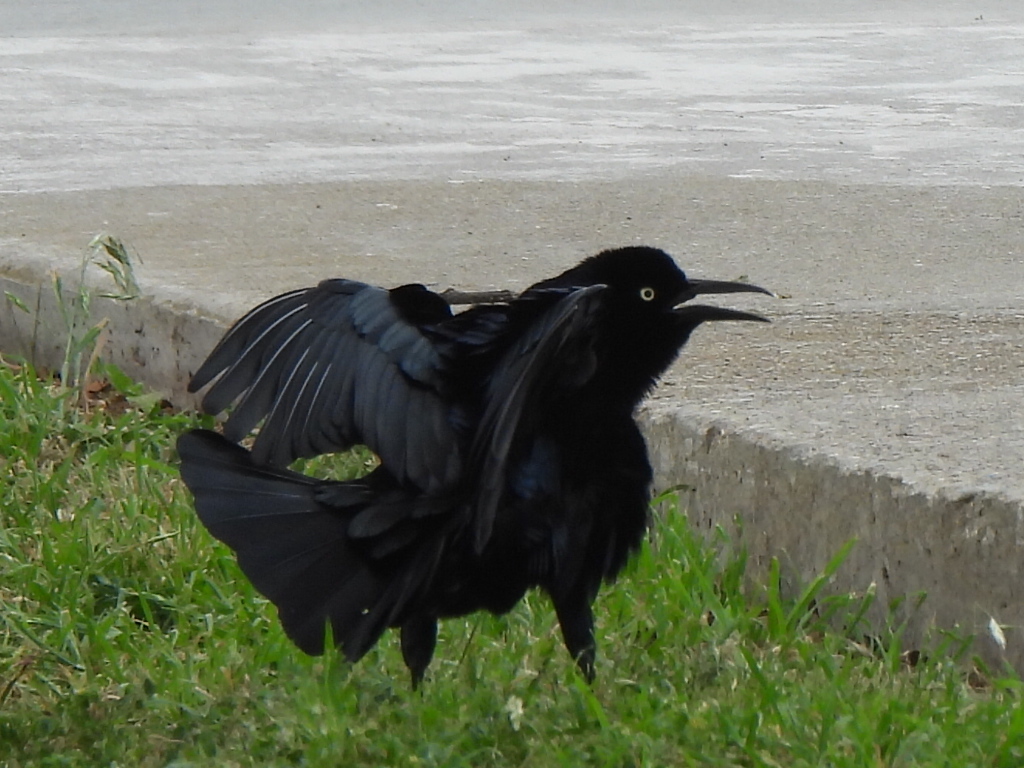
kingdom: Animalia
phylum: Chordata
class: Aves
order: Passeriformes
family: Icteridae
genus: Quiscalus
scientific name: Quiscalus mexicanus
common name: Great-tailed grackle
